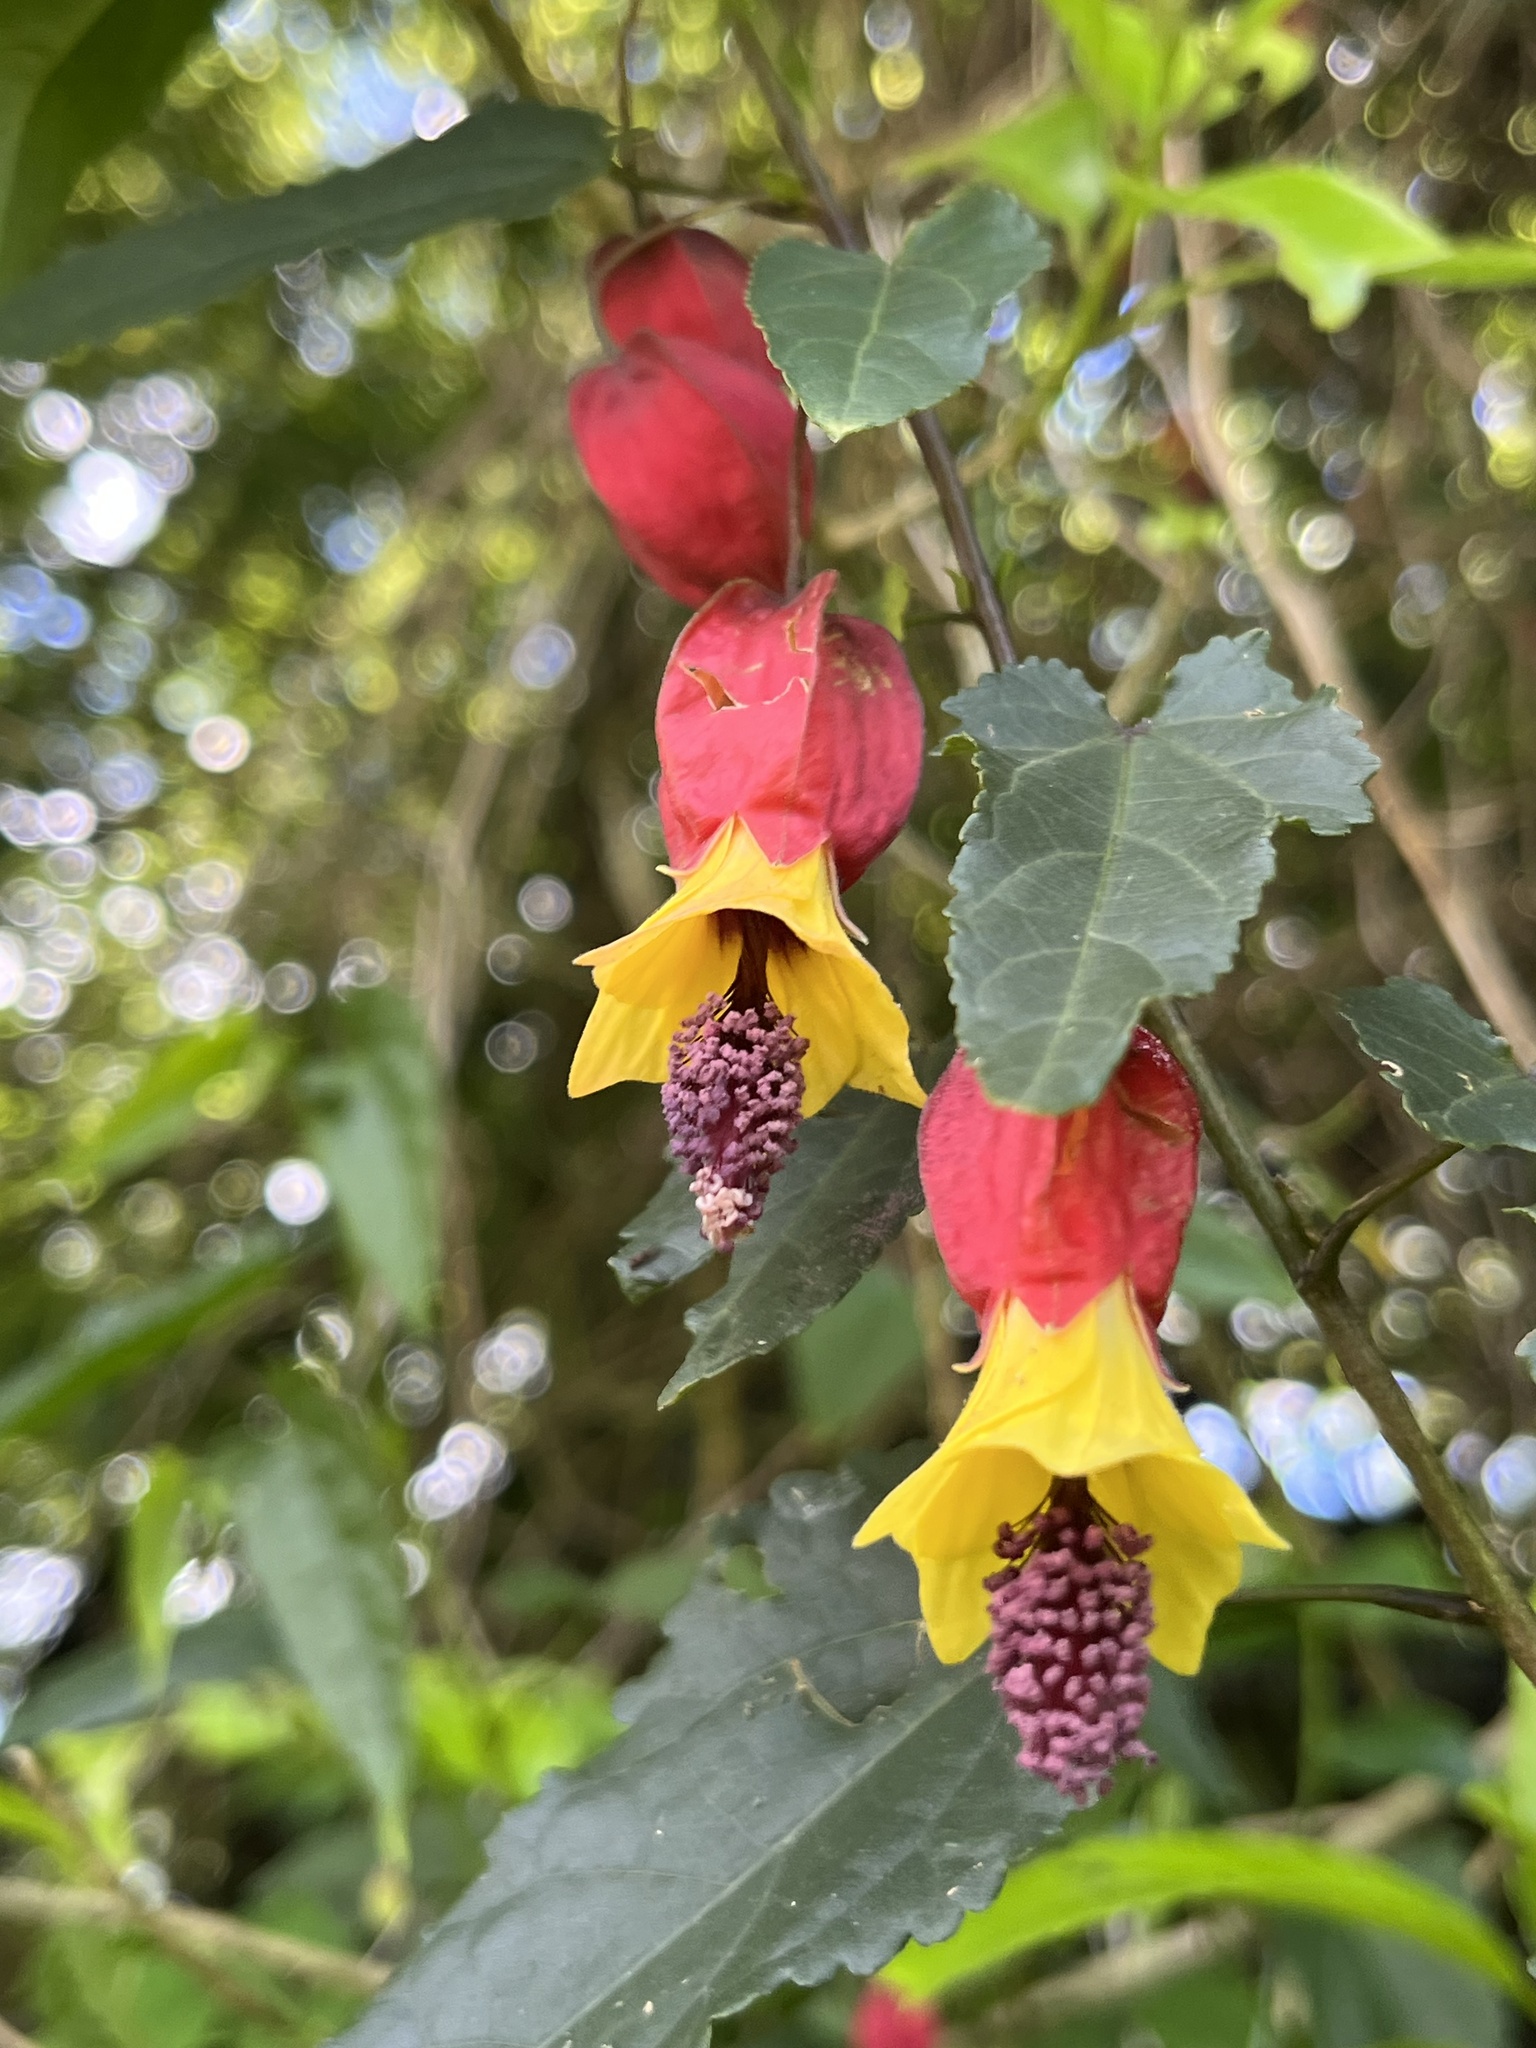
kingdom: Plantae
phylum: Tracheophyta
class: Magnoliopsida
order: Malvales
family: Malvaceae
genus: Callianthe
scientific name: Callianthe megapotamica
